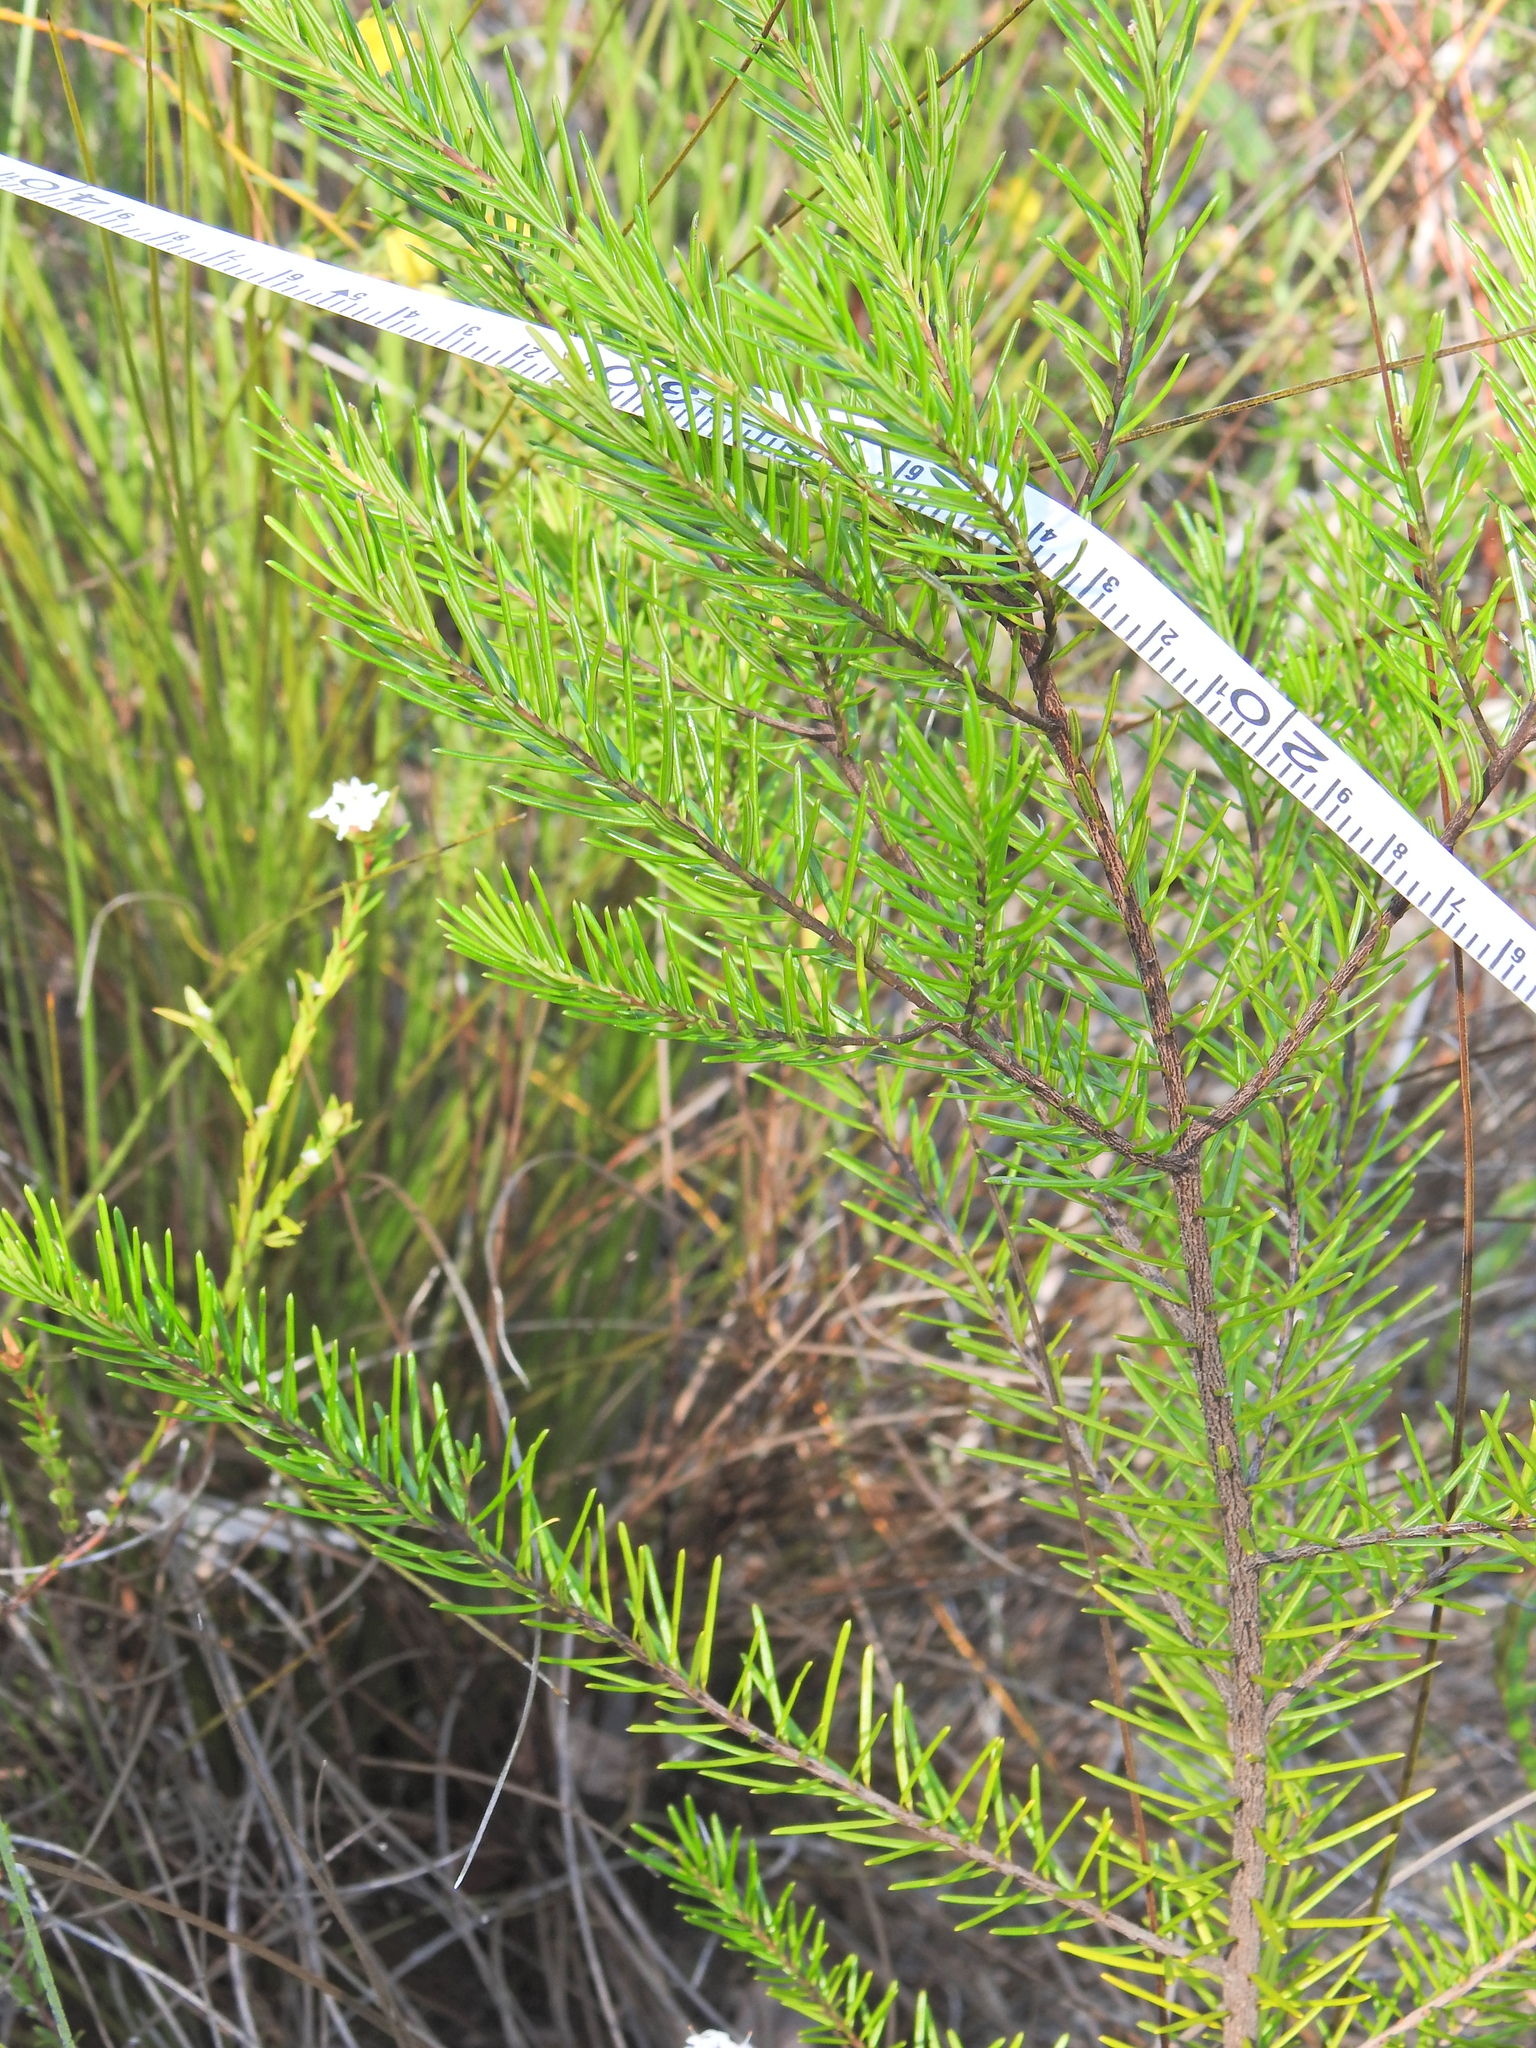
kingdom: Plantae
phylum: Tracheophyta
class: Magnoliopsida
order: Malpighiales
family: Euphorbiaceae
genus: Ricinocarpos
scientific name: Ricinocarpos pinifolius
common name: Weddingbush
